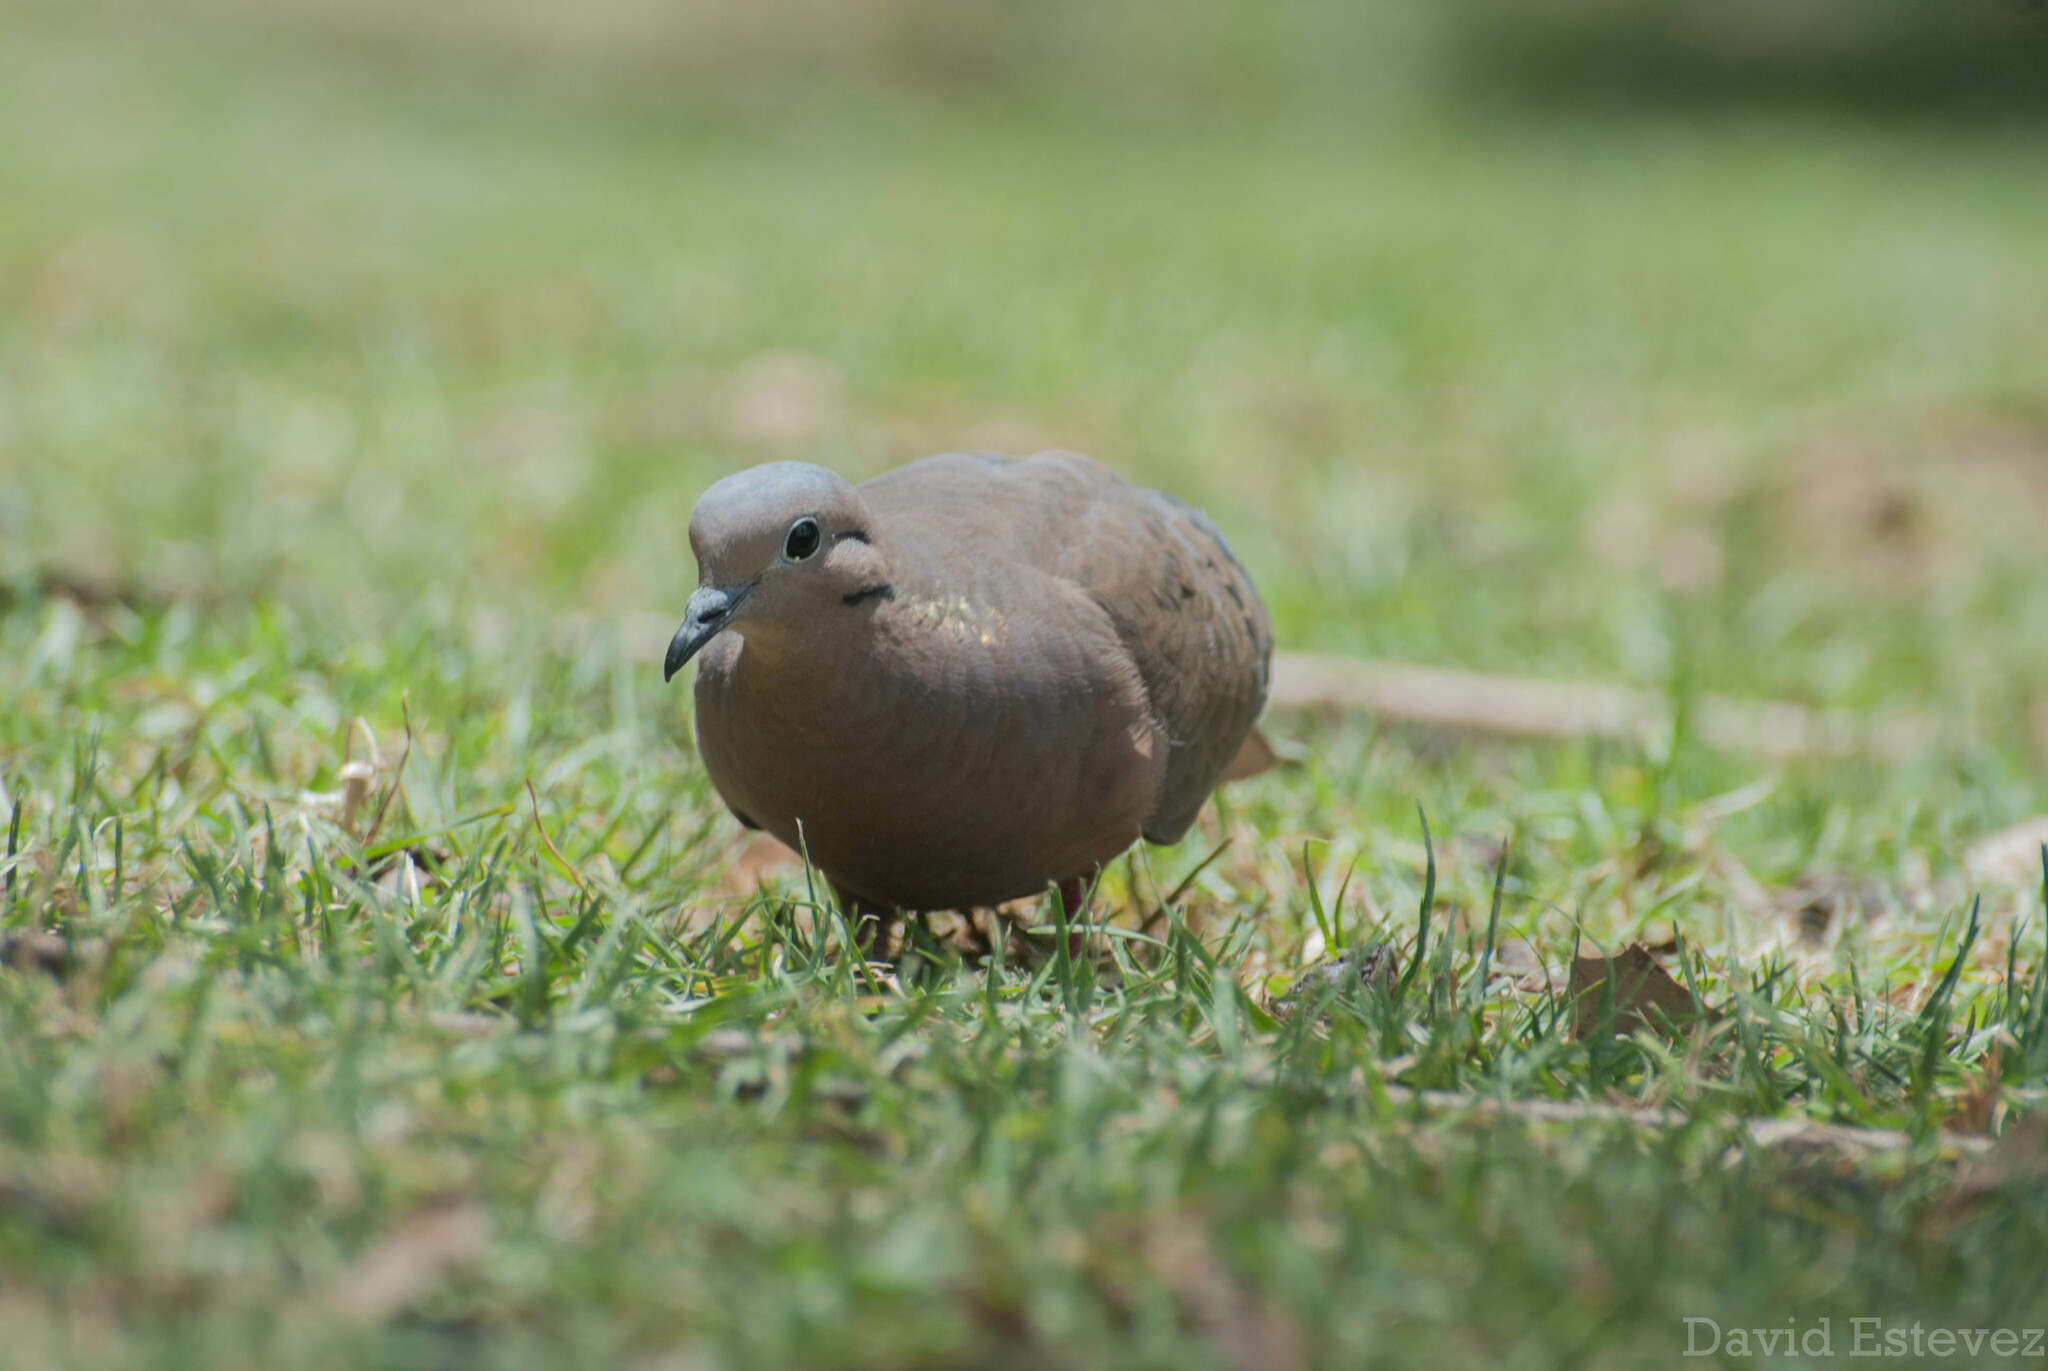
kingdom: Animalia
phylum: Chordata
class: Aves
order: Columbiformes
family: Columbidae
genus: Zenaida
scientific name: Zenaida auriculata
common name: Eared dove
